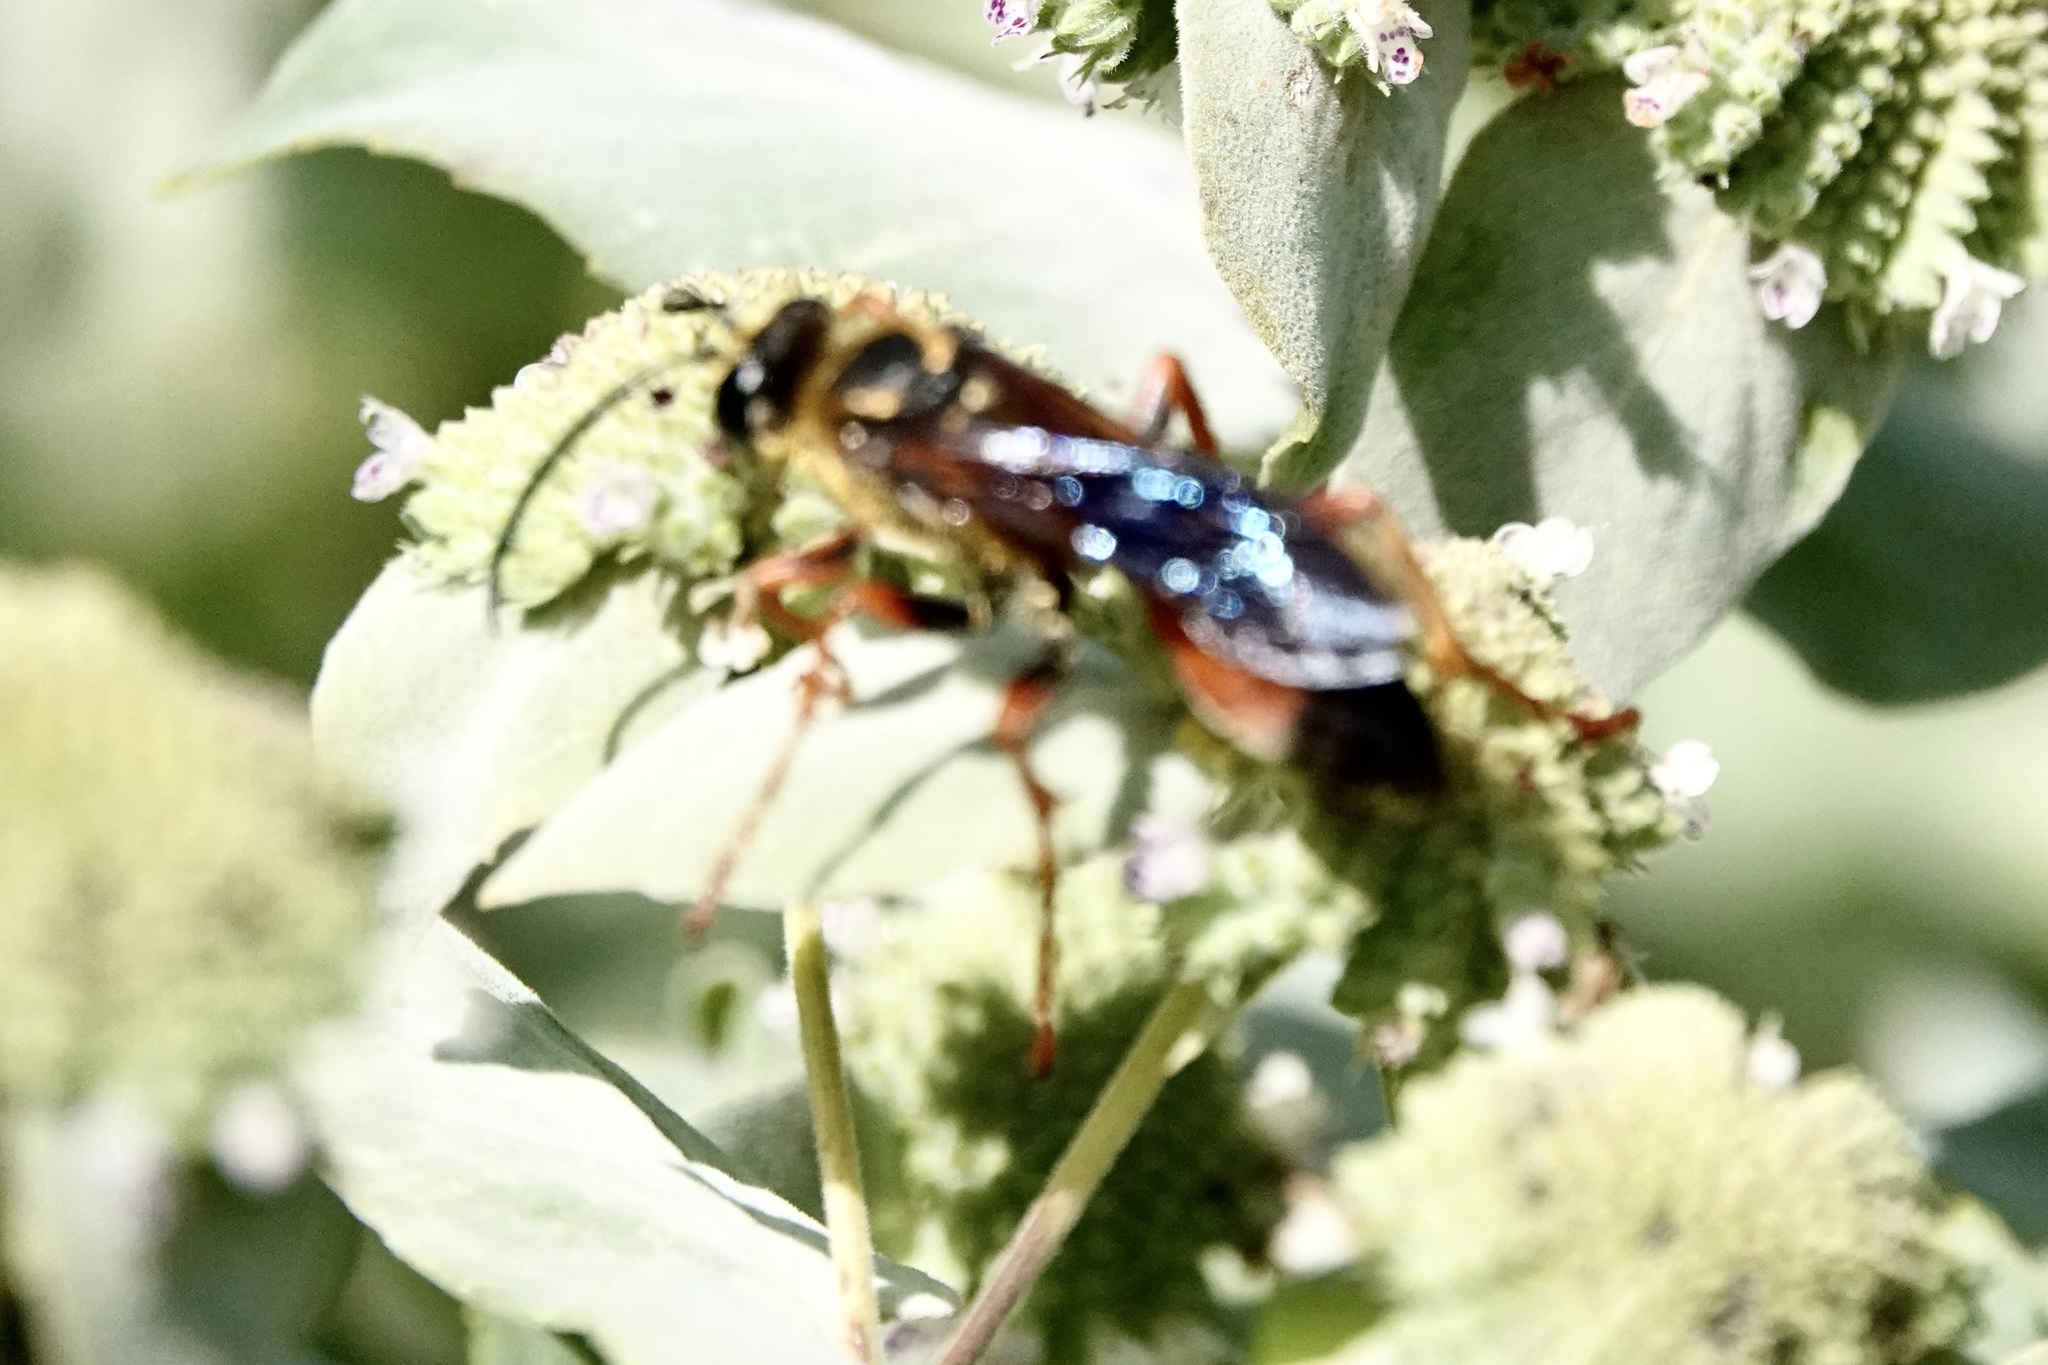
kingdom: Animalia
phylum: Arthropoda
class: Insecta
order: Hymenoptera
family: Sphecidae
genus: Sphex
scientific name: Sphex ichneumoneus
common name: Great golden digger wasp
